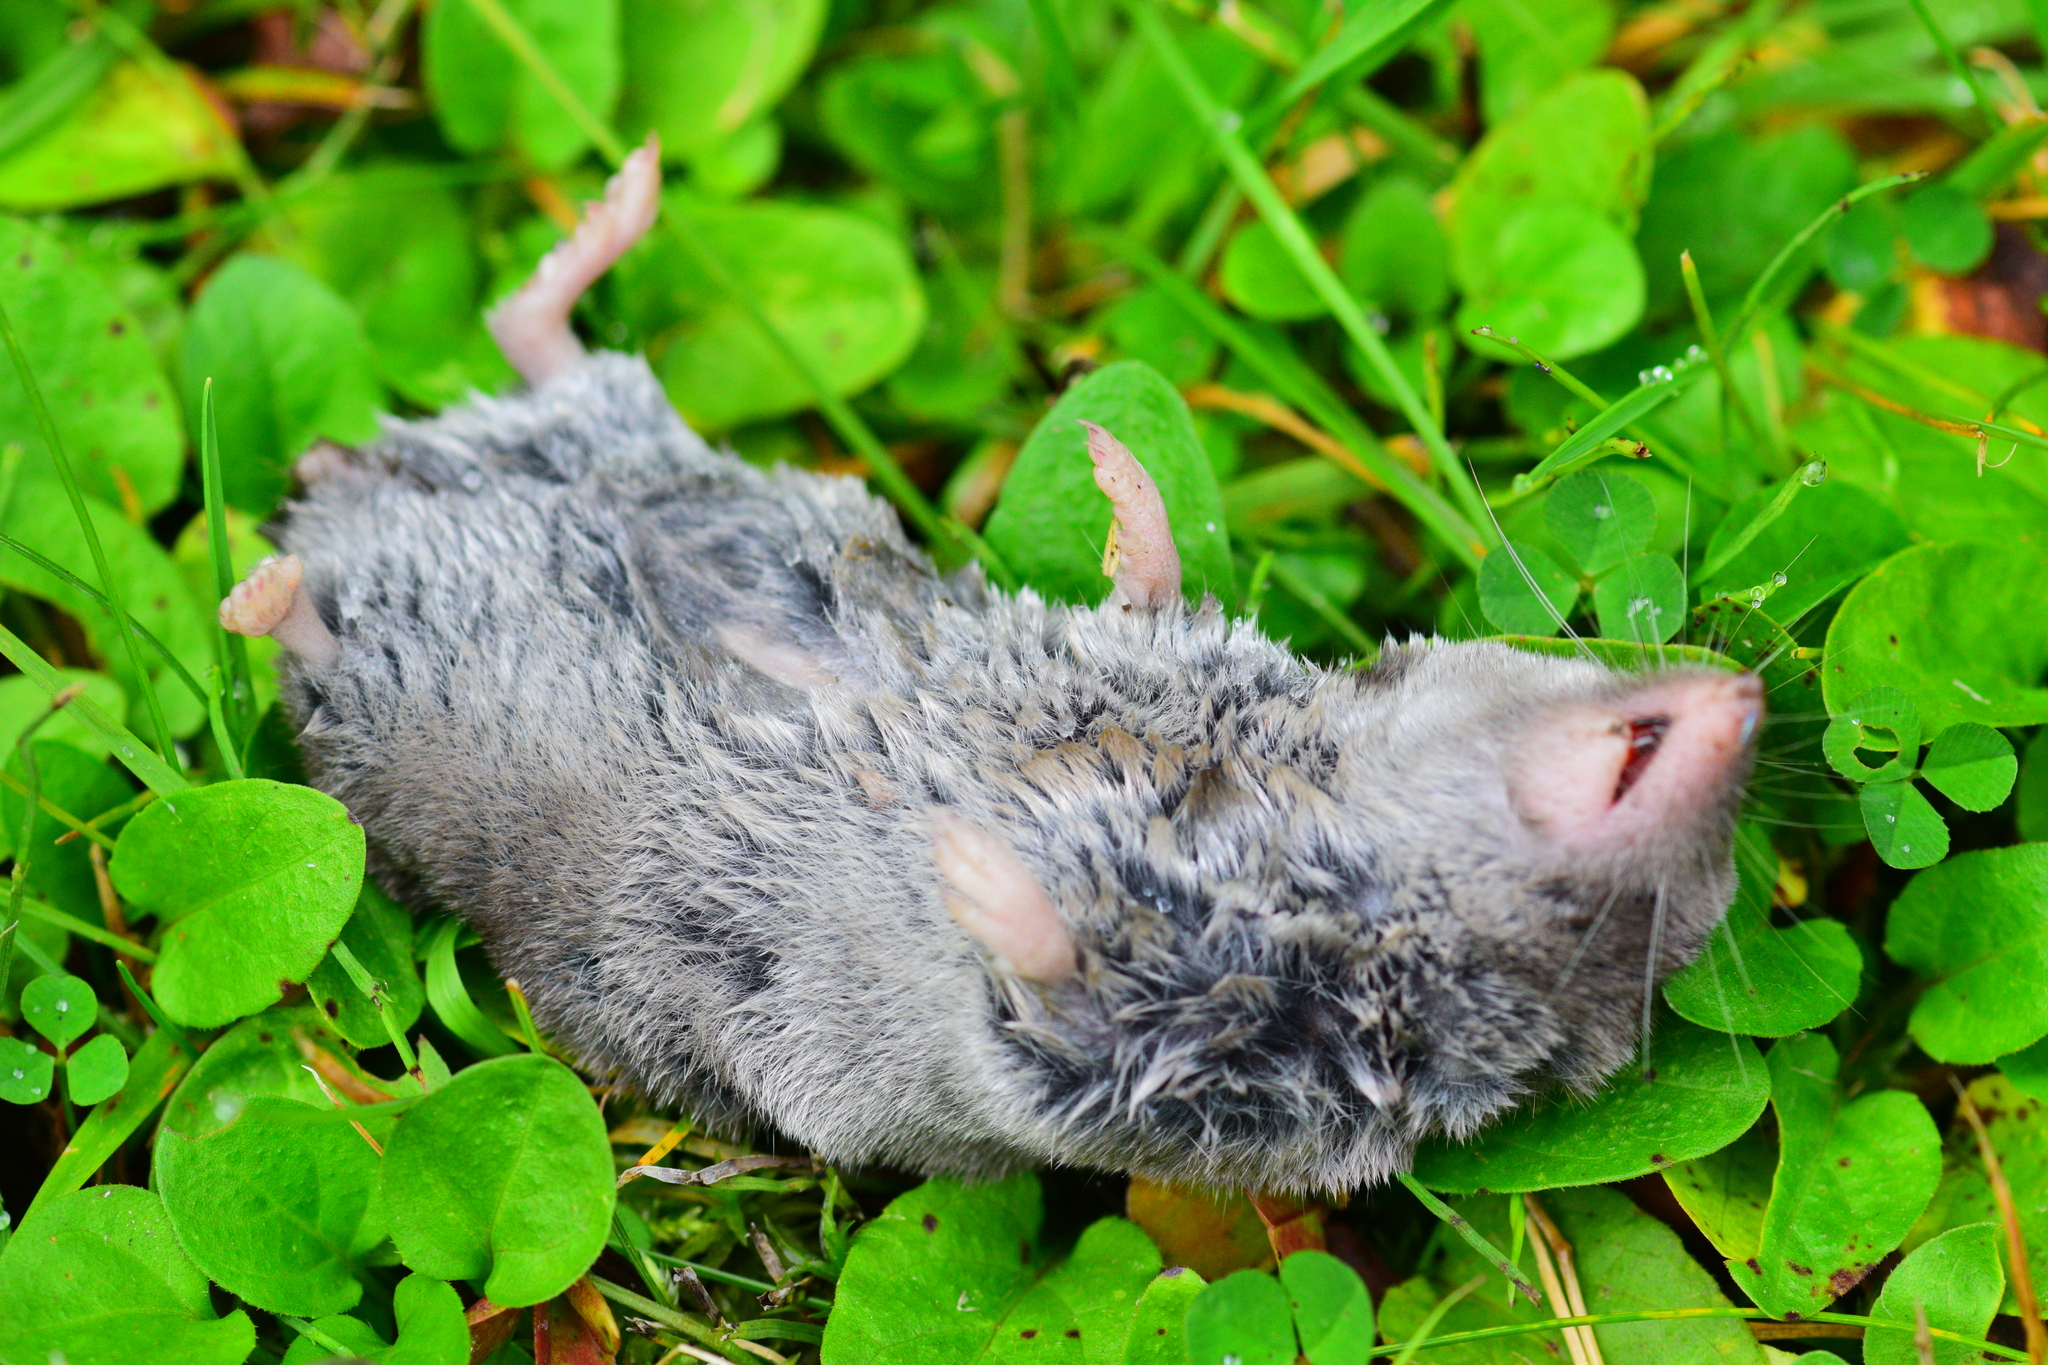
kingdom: Animalia
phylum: Chordata
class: Mammalia
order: Soricomorpha
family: Soricidae
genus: Blarina
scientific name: Blarina brevicauda
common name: Northern short-tailed shrew
